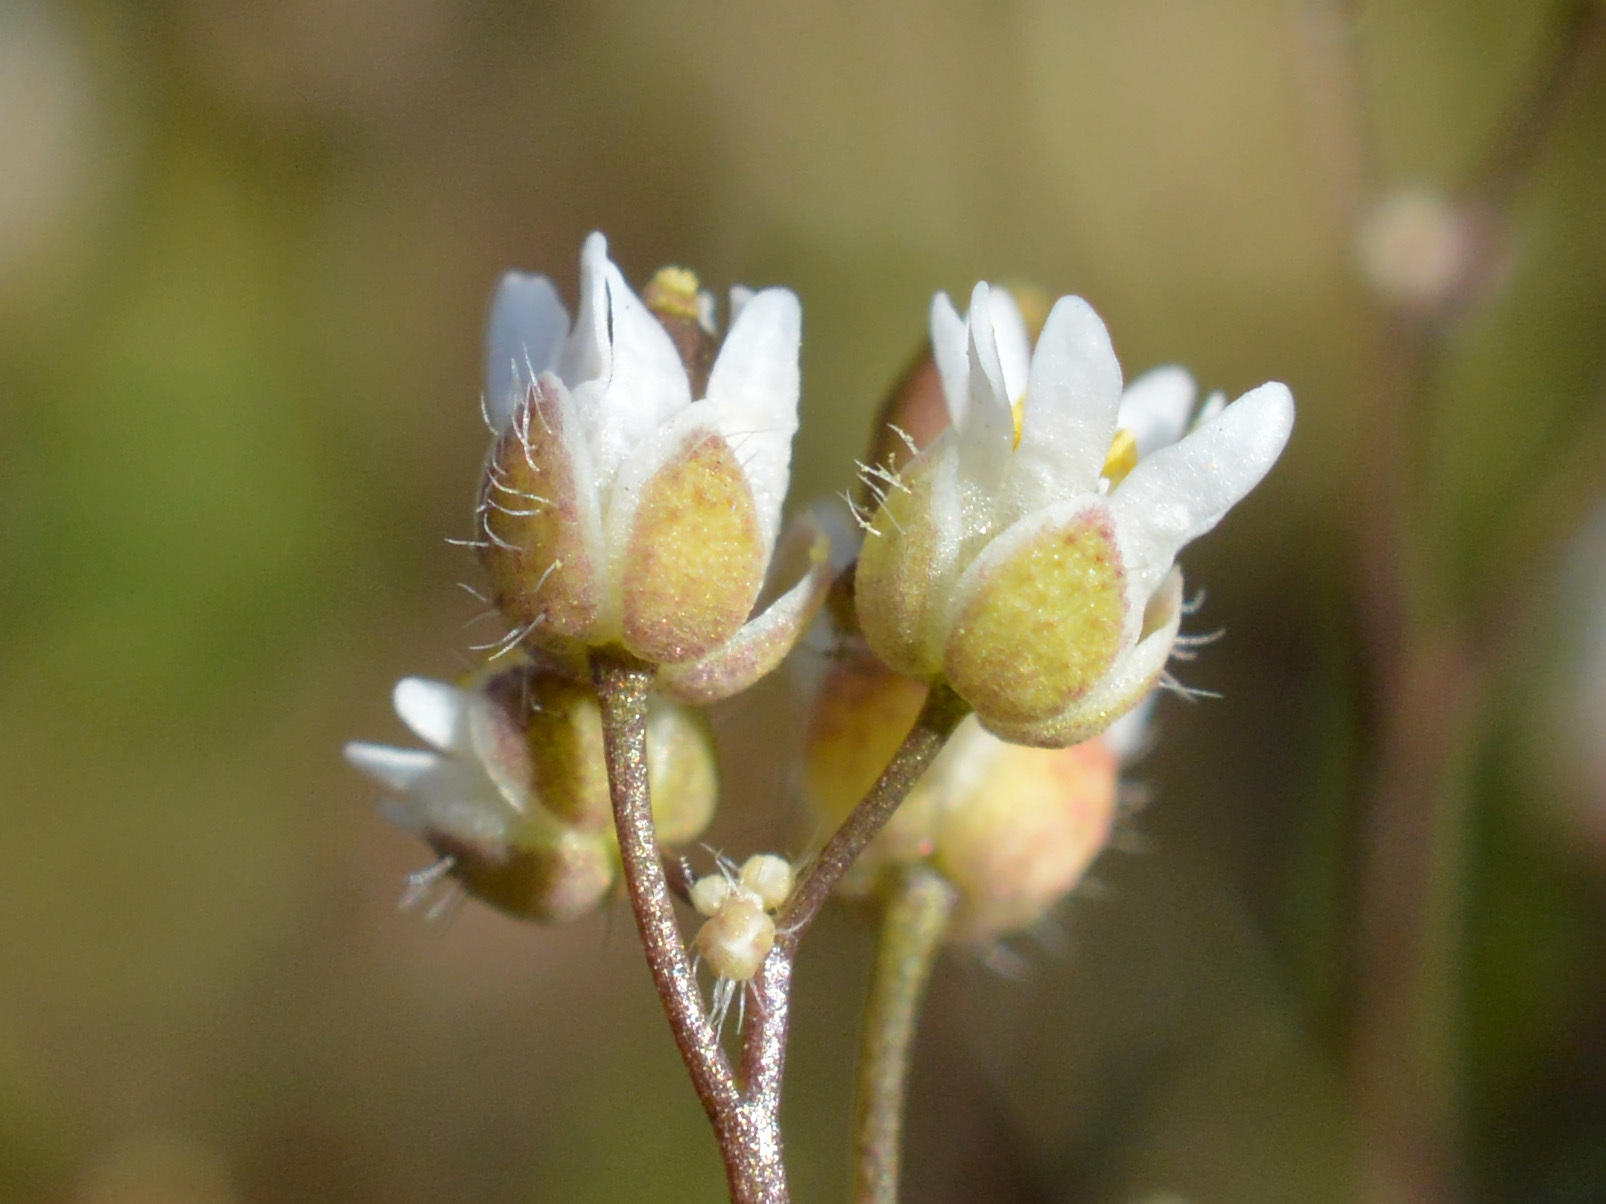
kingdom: Plantae
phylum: Tracheophyta
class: Magnoliopsida
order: Brassicales
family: Brassicaceae
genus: Draba
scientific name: Draba verna
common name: Spring draba
